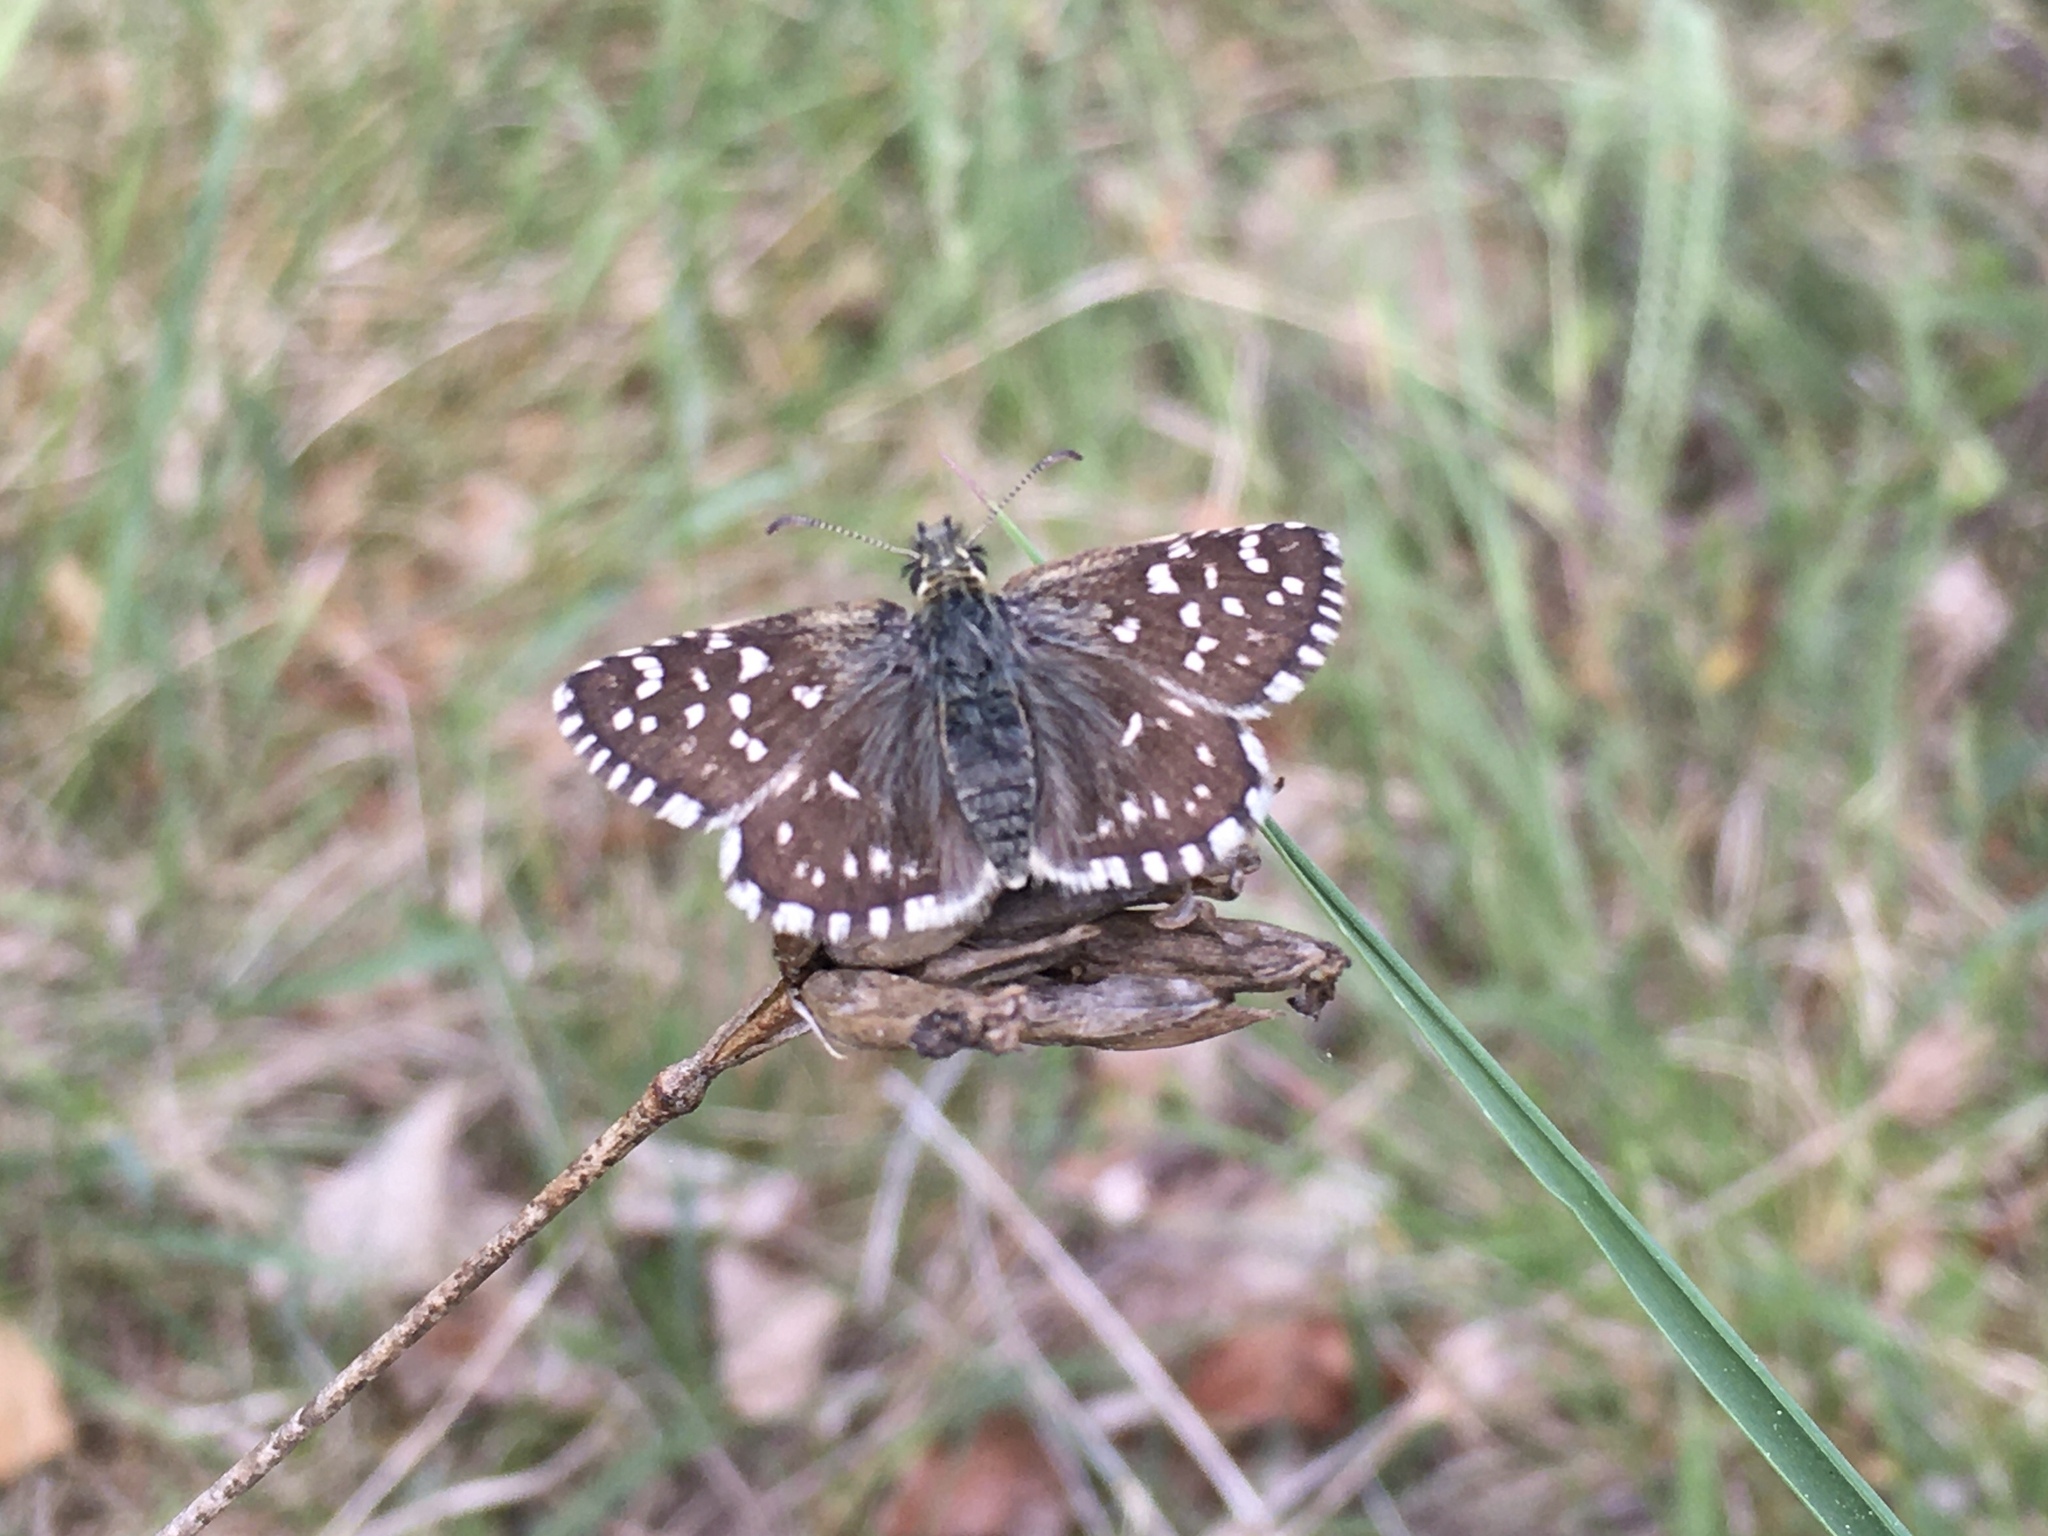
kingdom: Animalia
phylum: Arthropoda
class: Insecta
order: Lepidoptera
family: Hesperiidae
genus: Pyrgus
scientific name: Pyrgus malvae
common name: Grizzled skipper
